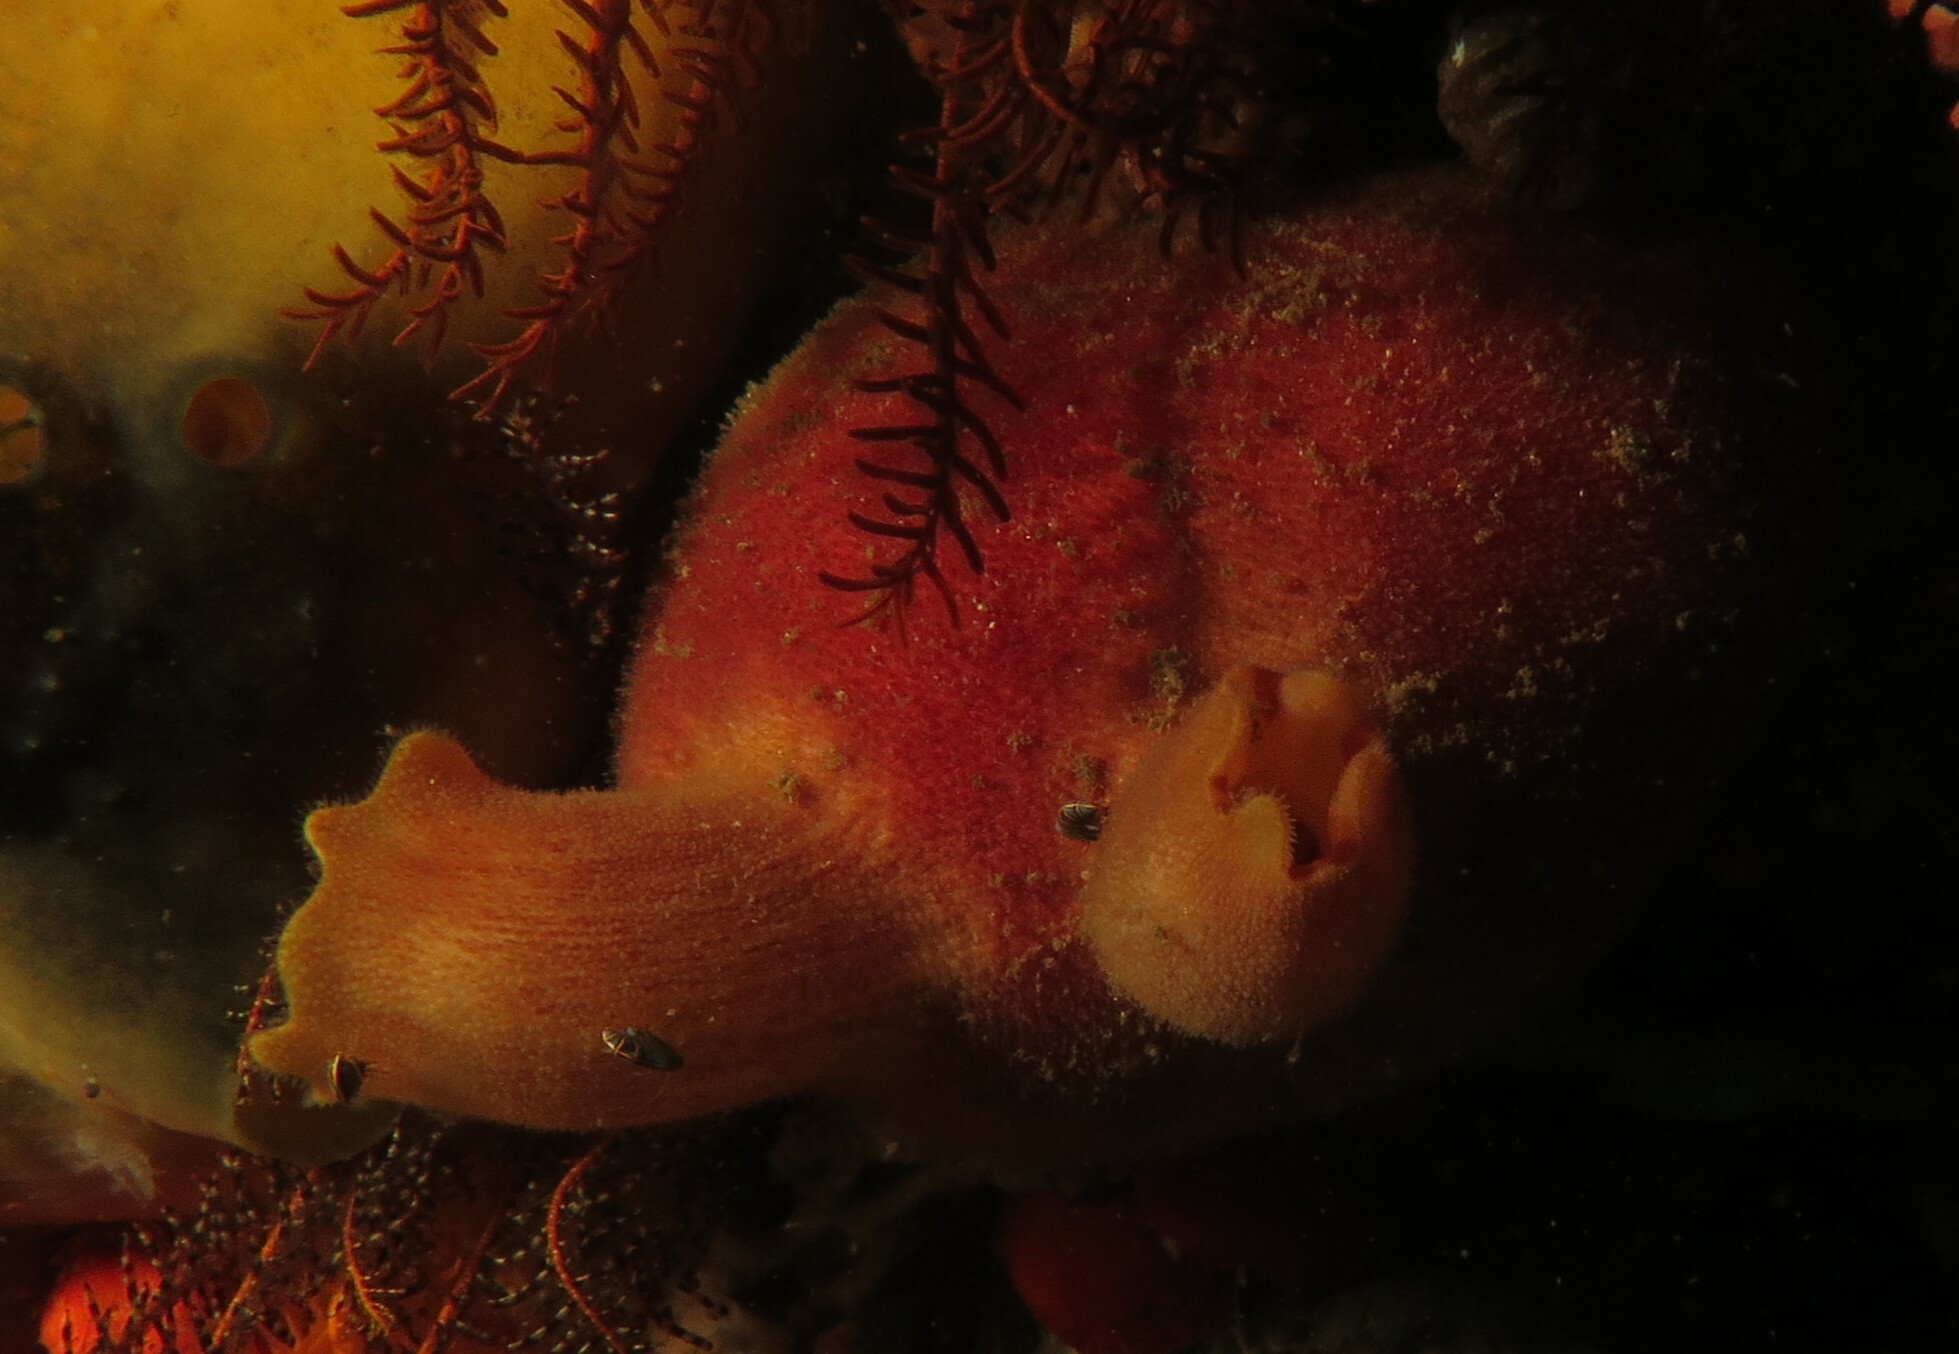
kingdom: Animalia
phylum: Chordata
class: Ascidiacea
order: Phlebobranchia
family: Ascidiidae
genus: Ascidia
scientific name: Ascidia incrassata
